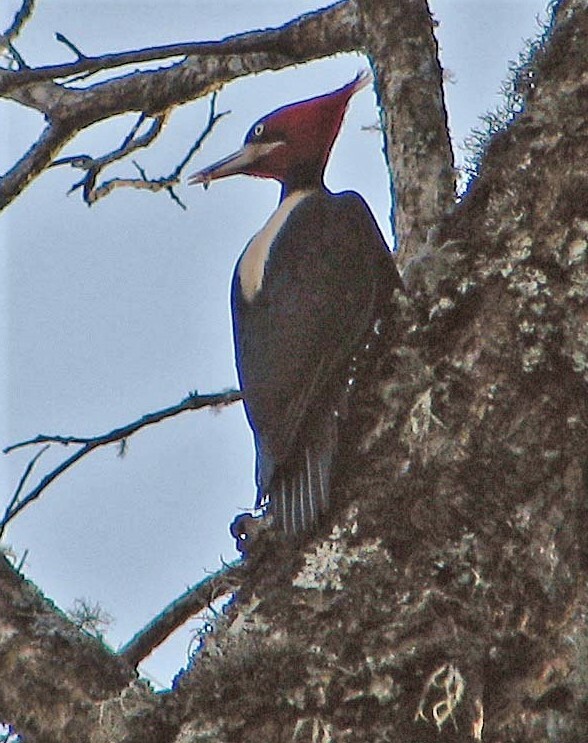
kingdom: Animalia
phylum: Chordata
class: Aves
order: Piciformes
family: Picidae
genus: Campephilus
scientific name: Campephilus leucopogon
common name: Cream-backed woodpecker
